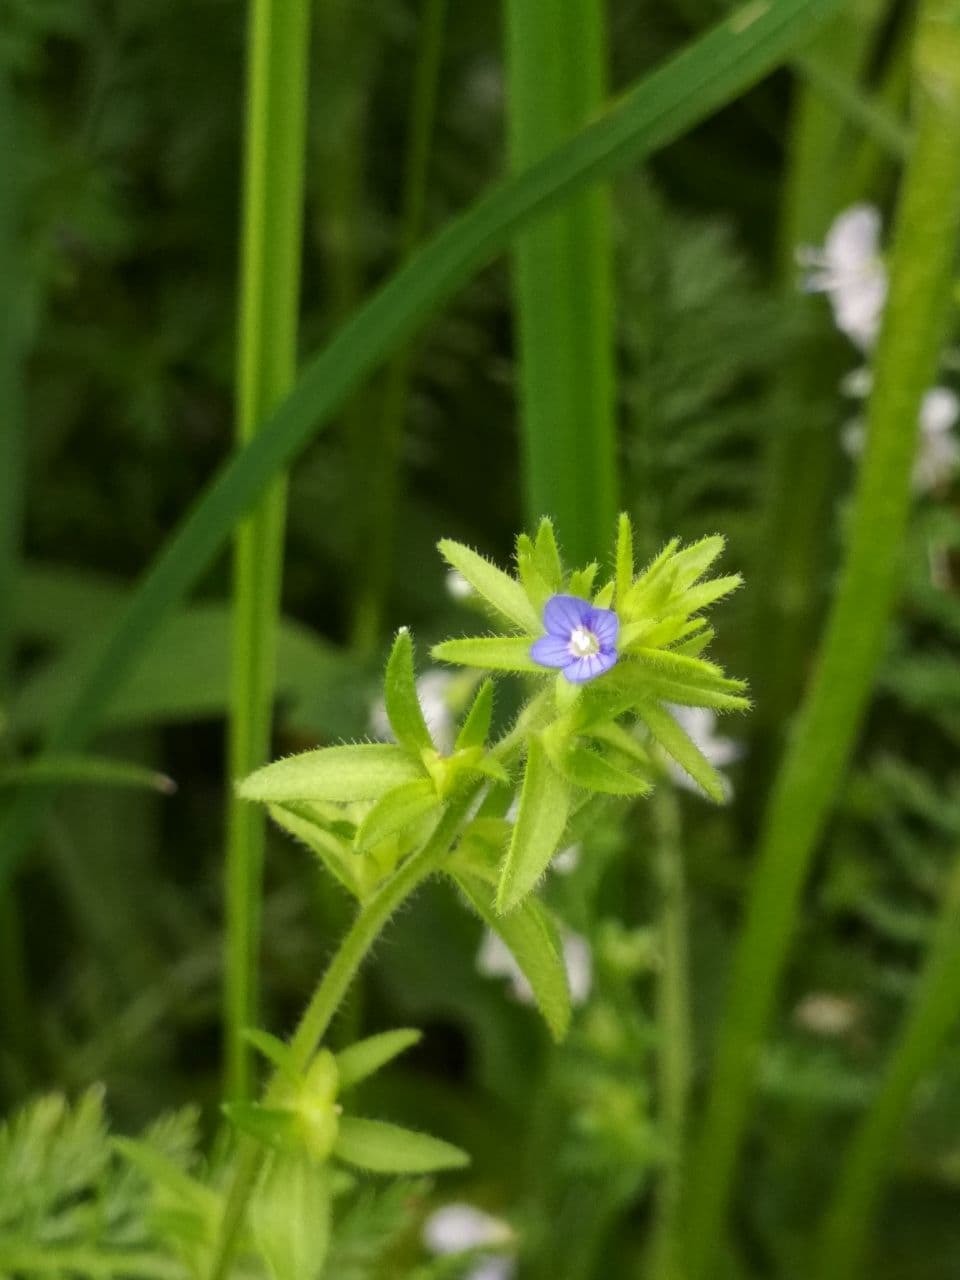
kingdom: Plantae
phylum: Tracheophyta
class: Magnoliopsida
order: Lamiales
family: Plantaginaceae
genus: Veronica
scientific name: Veronica arvensis
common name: Corn speedwell
